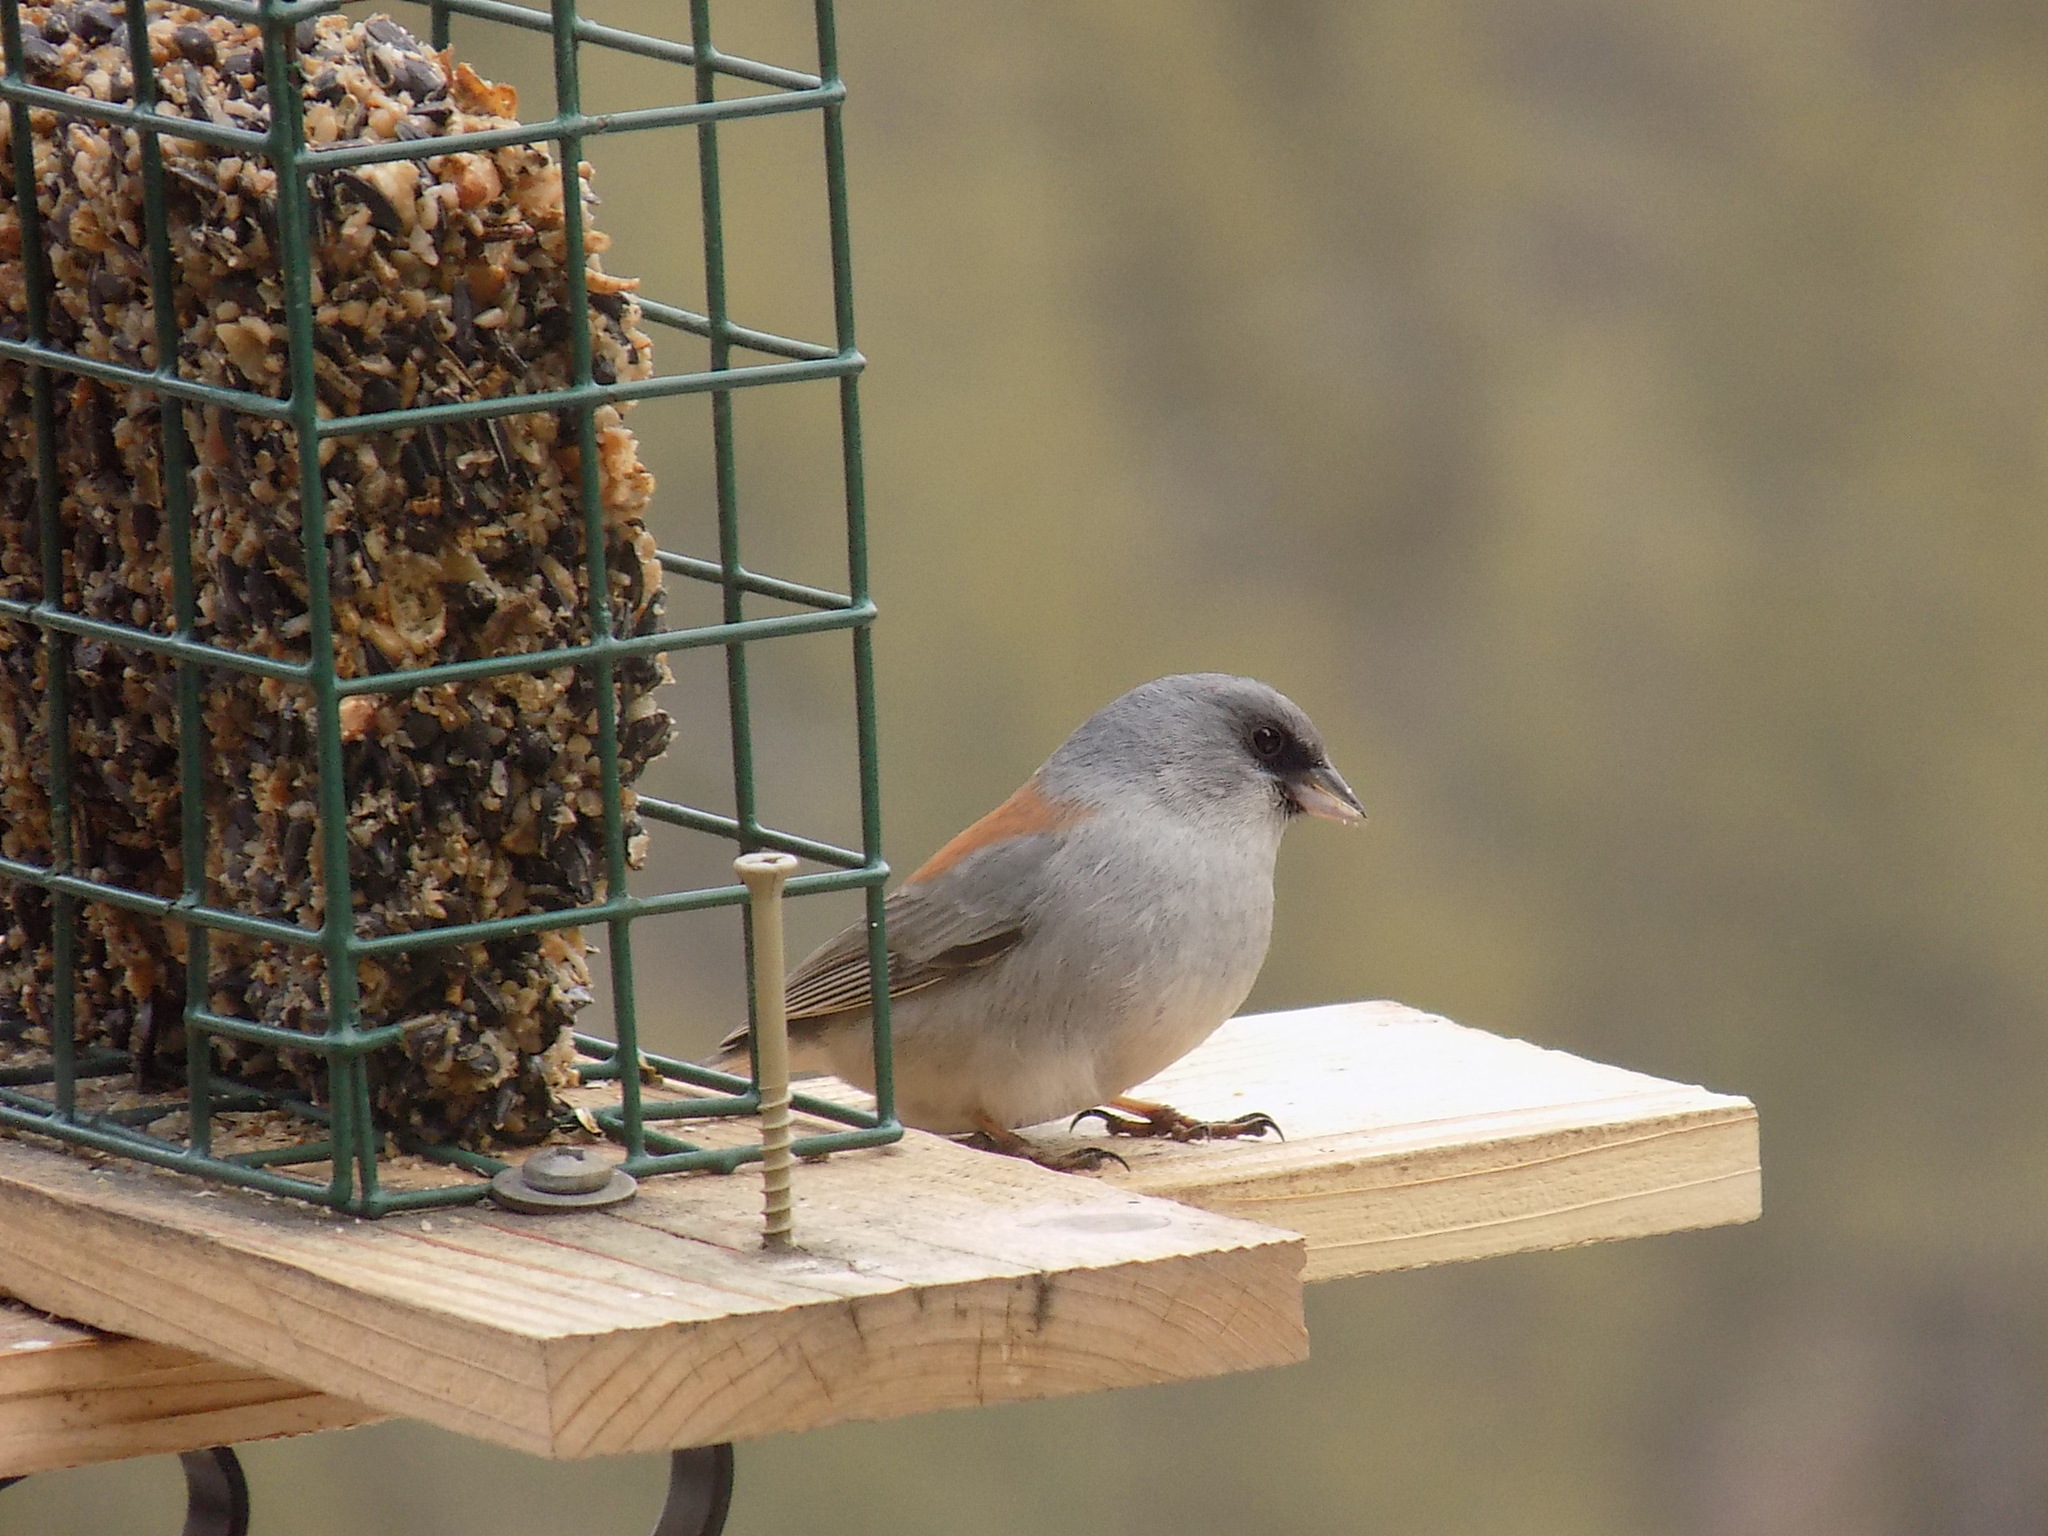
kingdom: Animalia
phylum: Chordata
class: Aves
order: Passeriformes
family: Passerellidae
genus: Junco
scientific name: Junco hyemalis
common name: Dark-eyed junco
